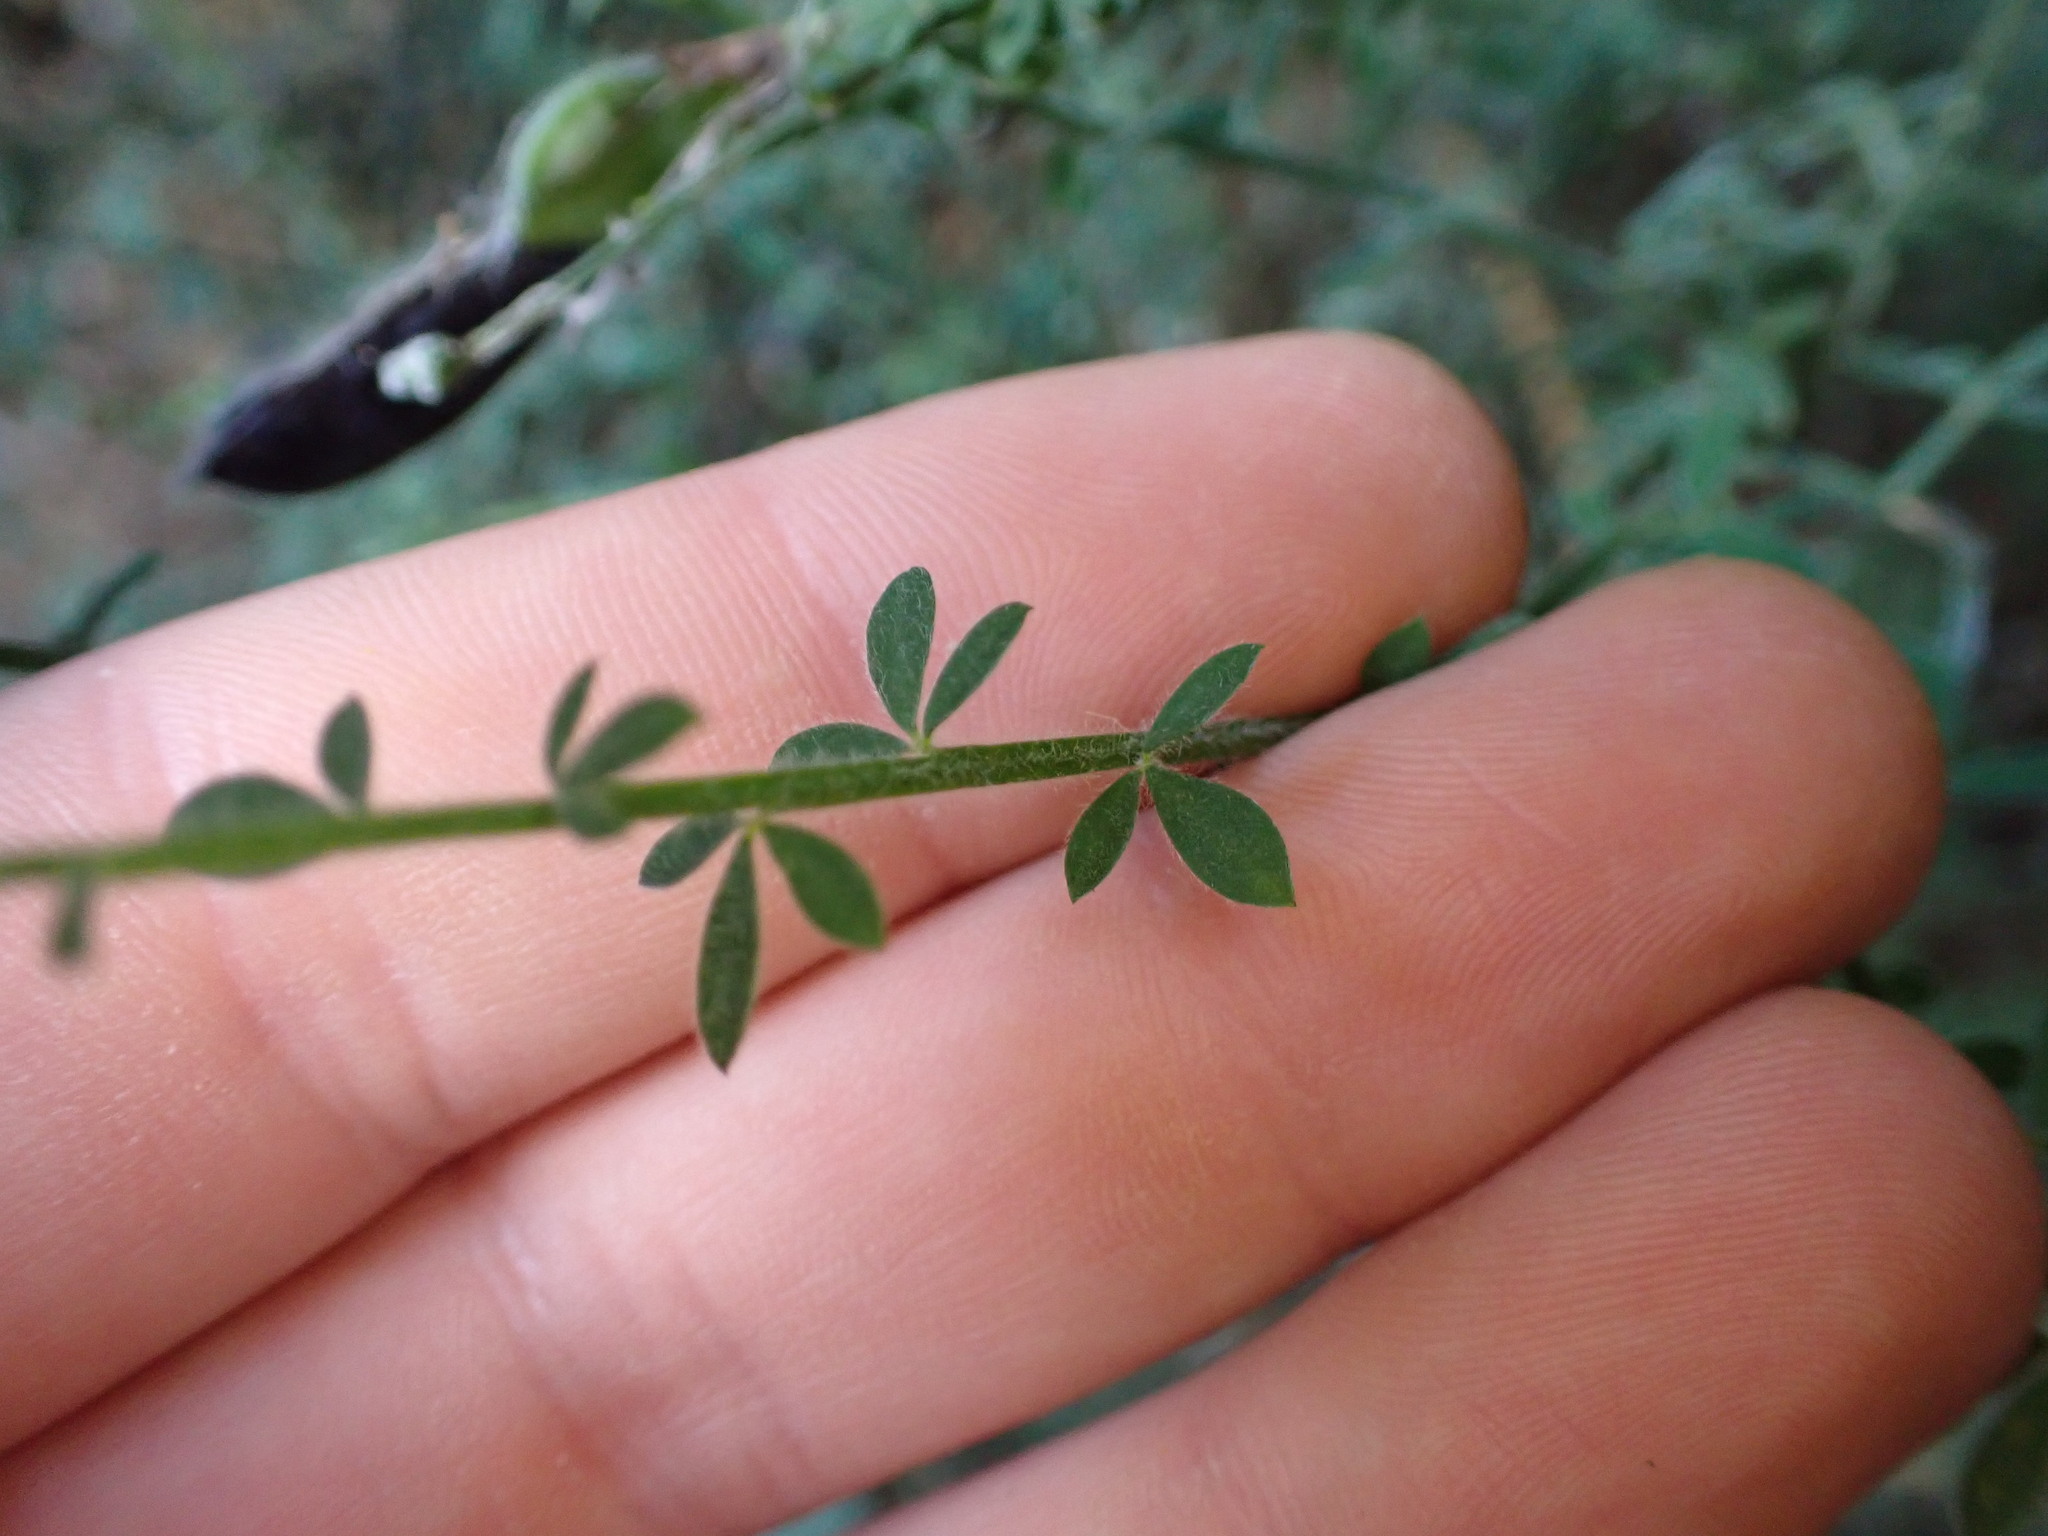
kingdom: Plantae
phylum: Tracheophyta
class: Magnoliopsida
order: Fabales
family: Fabaceae
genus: Cytisus
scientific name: Cytisus scoparius
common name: Scotch broom
